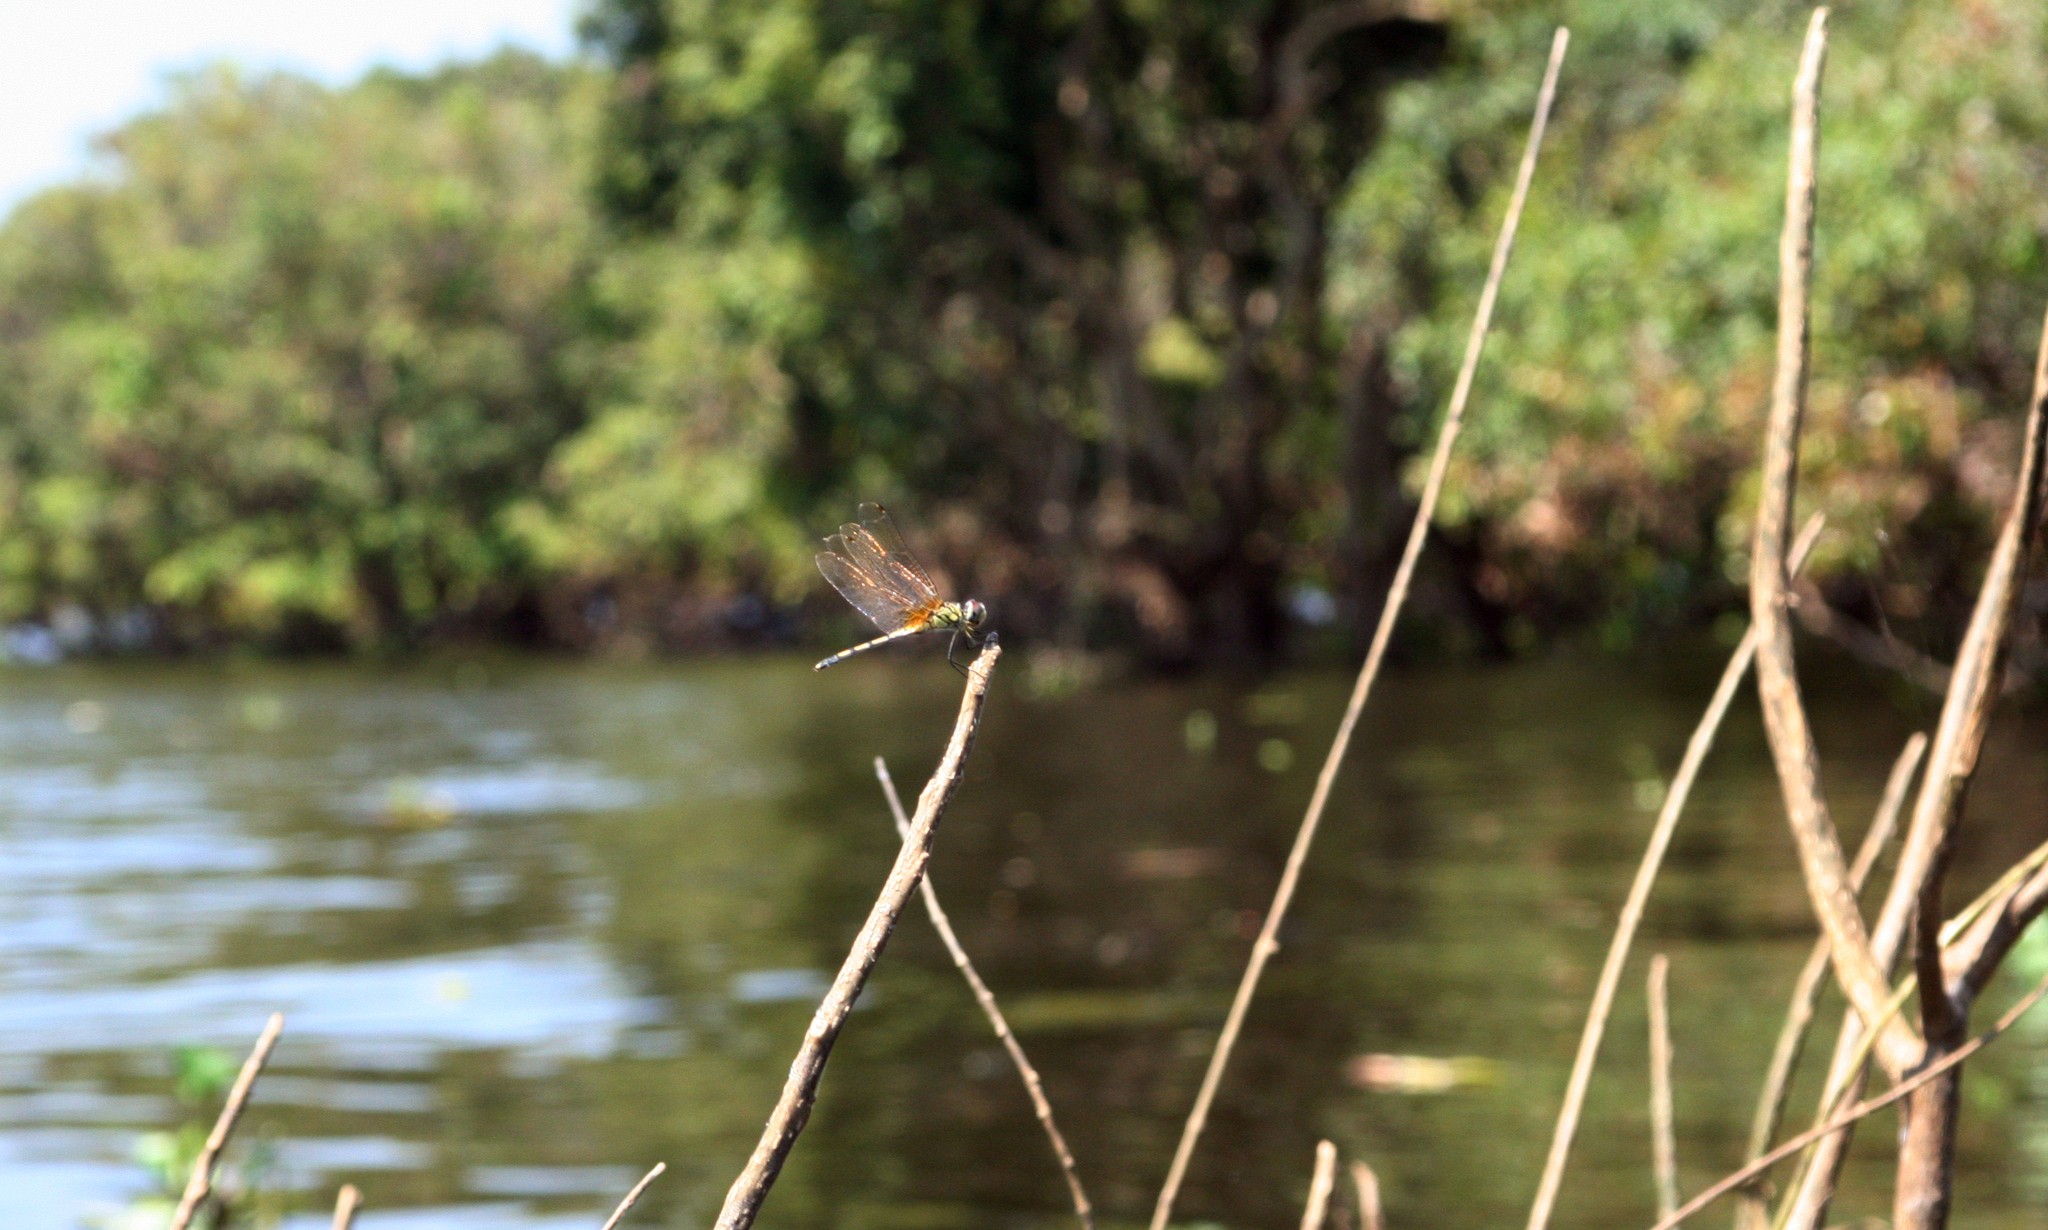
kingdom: Animalia
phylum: Arthropoda
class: Insecta
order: Odonata
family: Libellulidae
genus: Trithemis
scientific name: Trithemis pallidinervis
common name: Dancing dropwing
